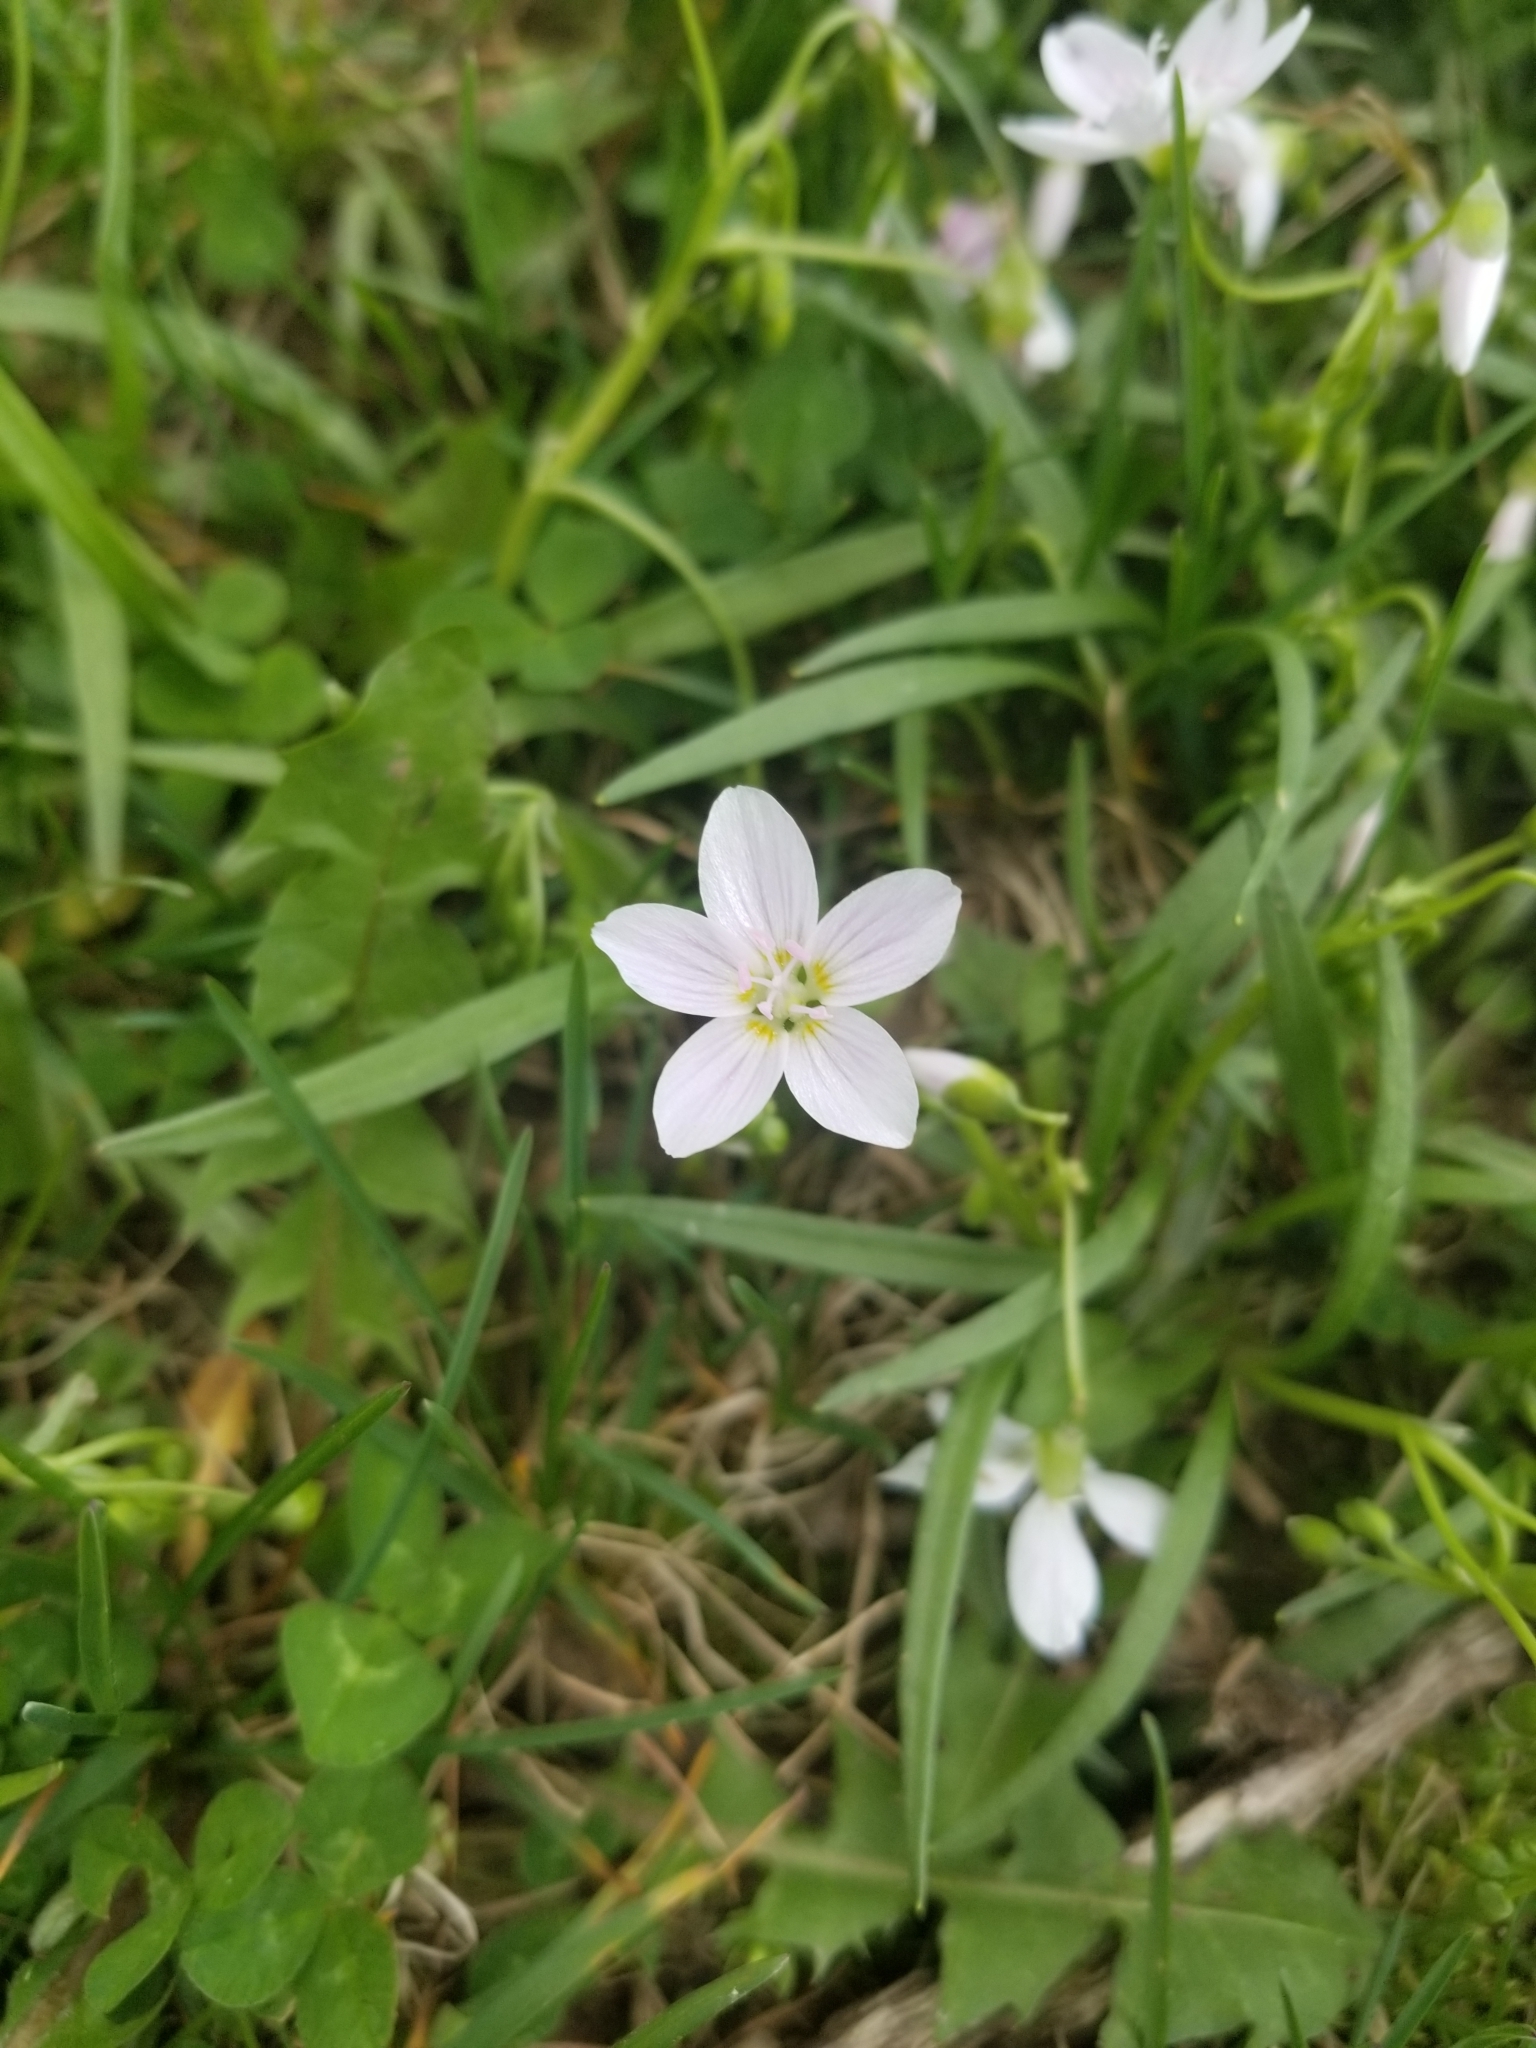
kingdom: Plantae
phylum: Tracheophyta
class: Magnoliopsida
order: Caryophyllales
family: Montiaceae
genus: Claytonia
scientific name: Claytonia virginica
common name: Virginia springbeauty
